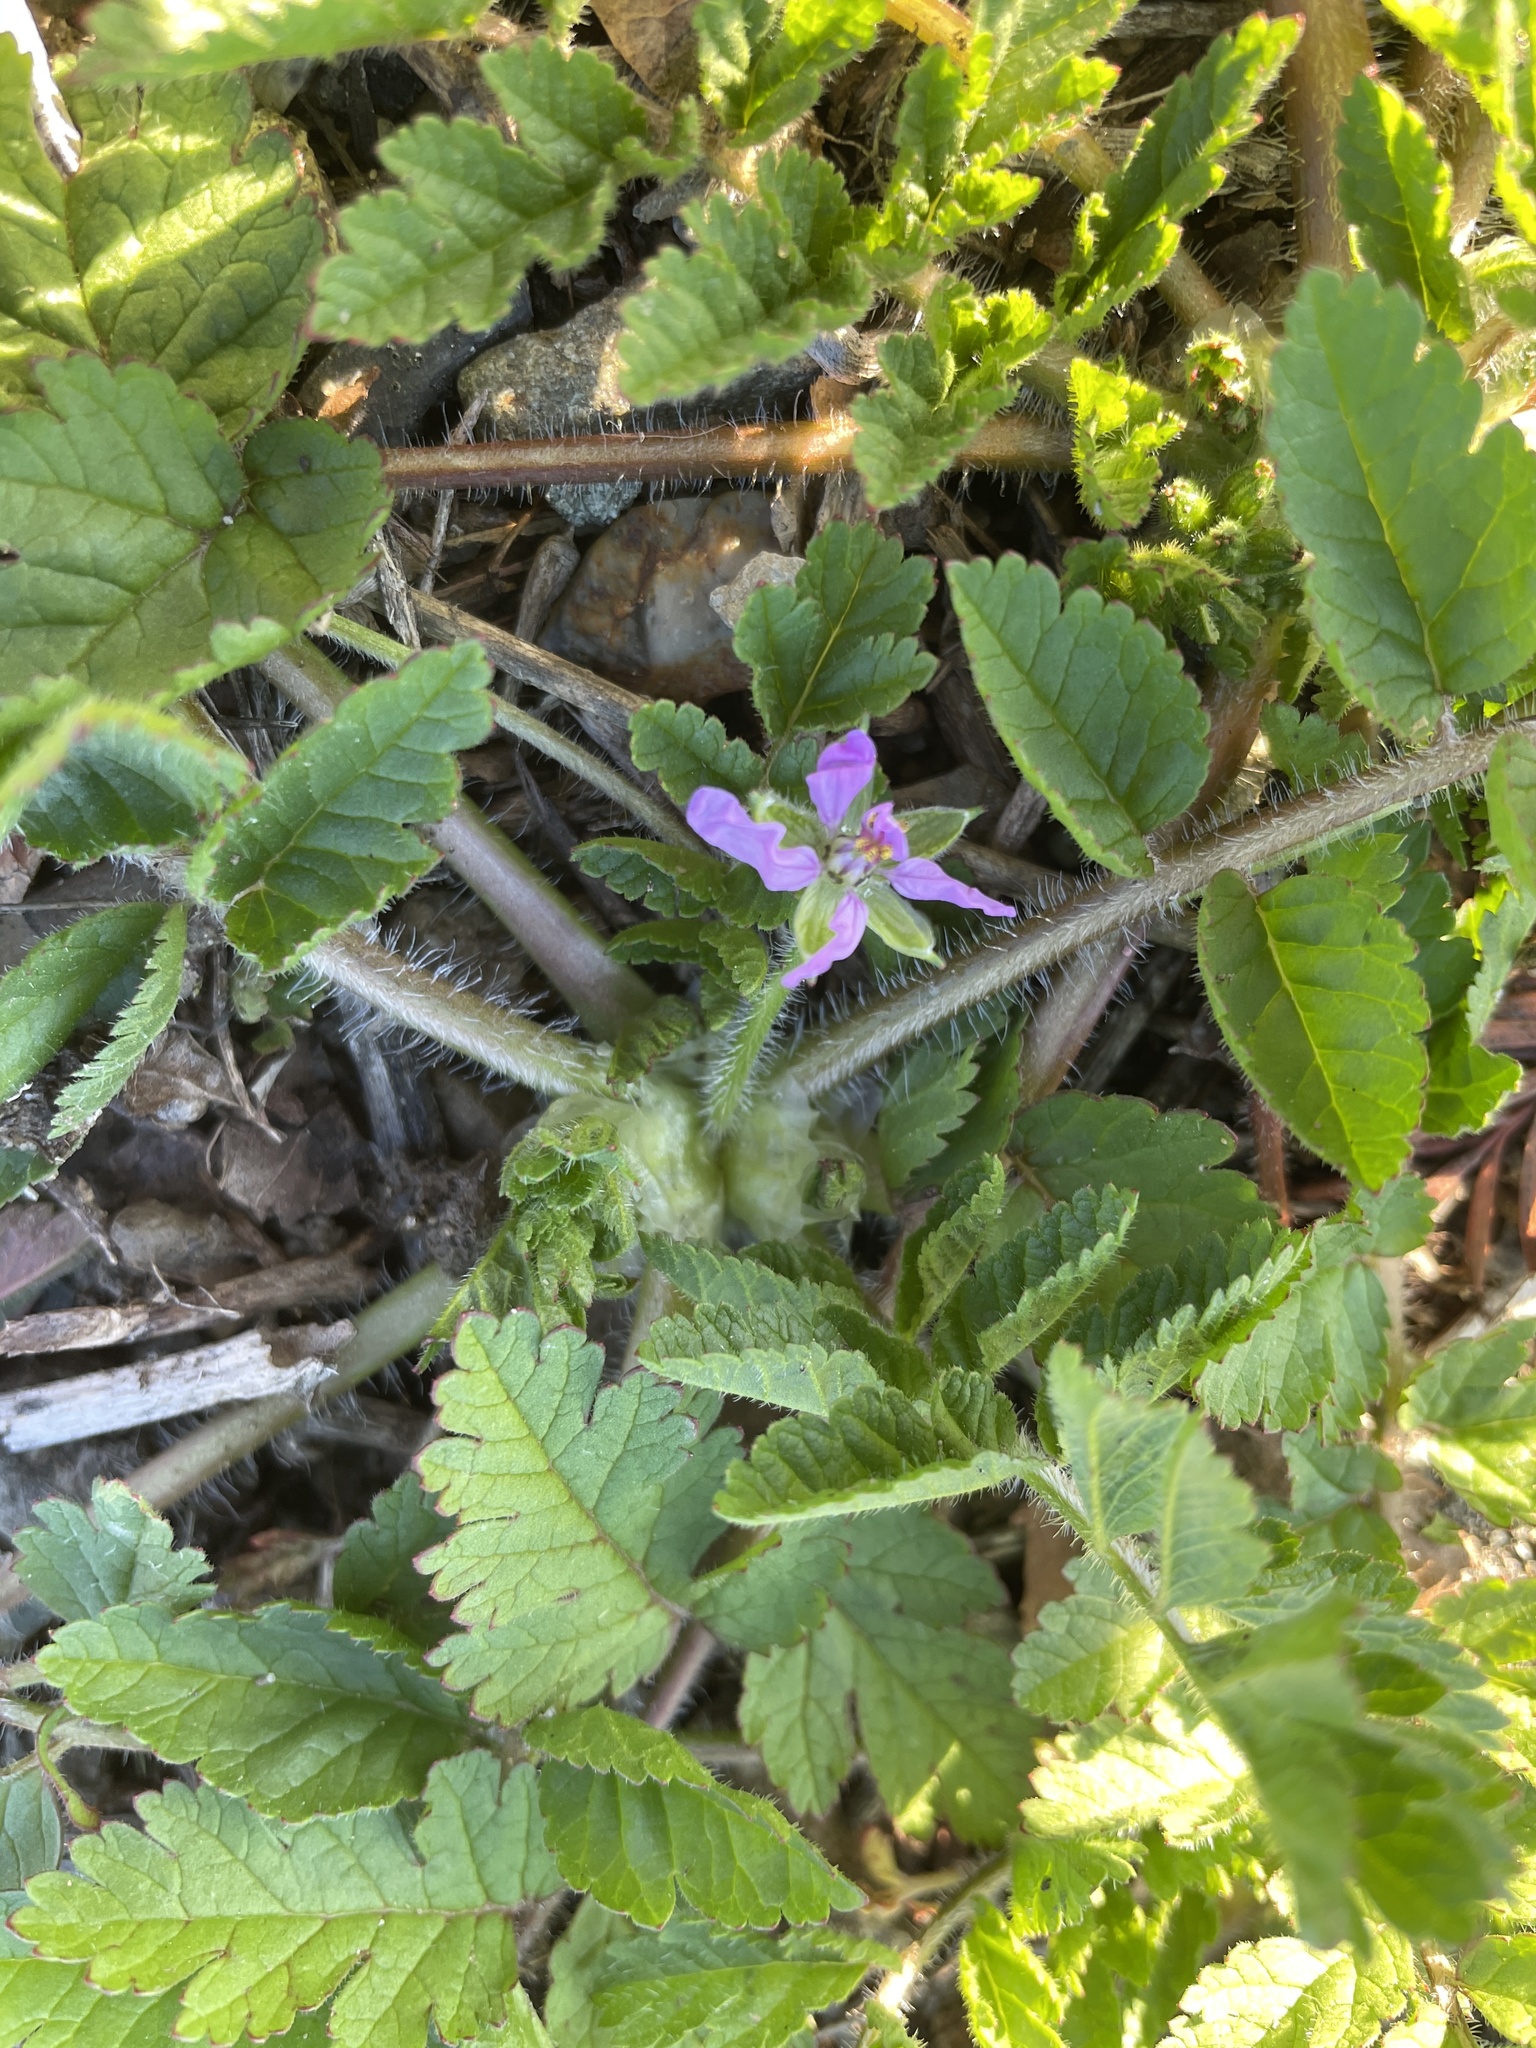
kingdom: Plantae
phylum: Tracheophyta
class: Magnoliopsida
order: Geraniales
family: Geraniaceae
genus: Erodium
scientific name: Erodium moschatum
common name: Musk stork's-bill
